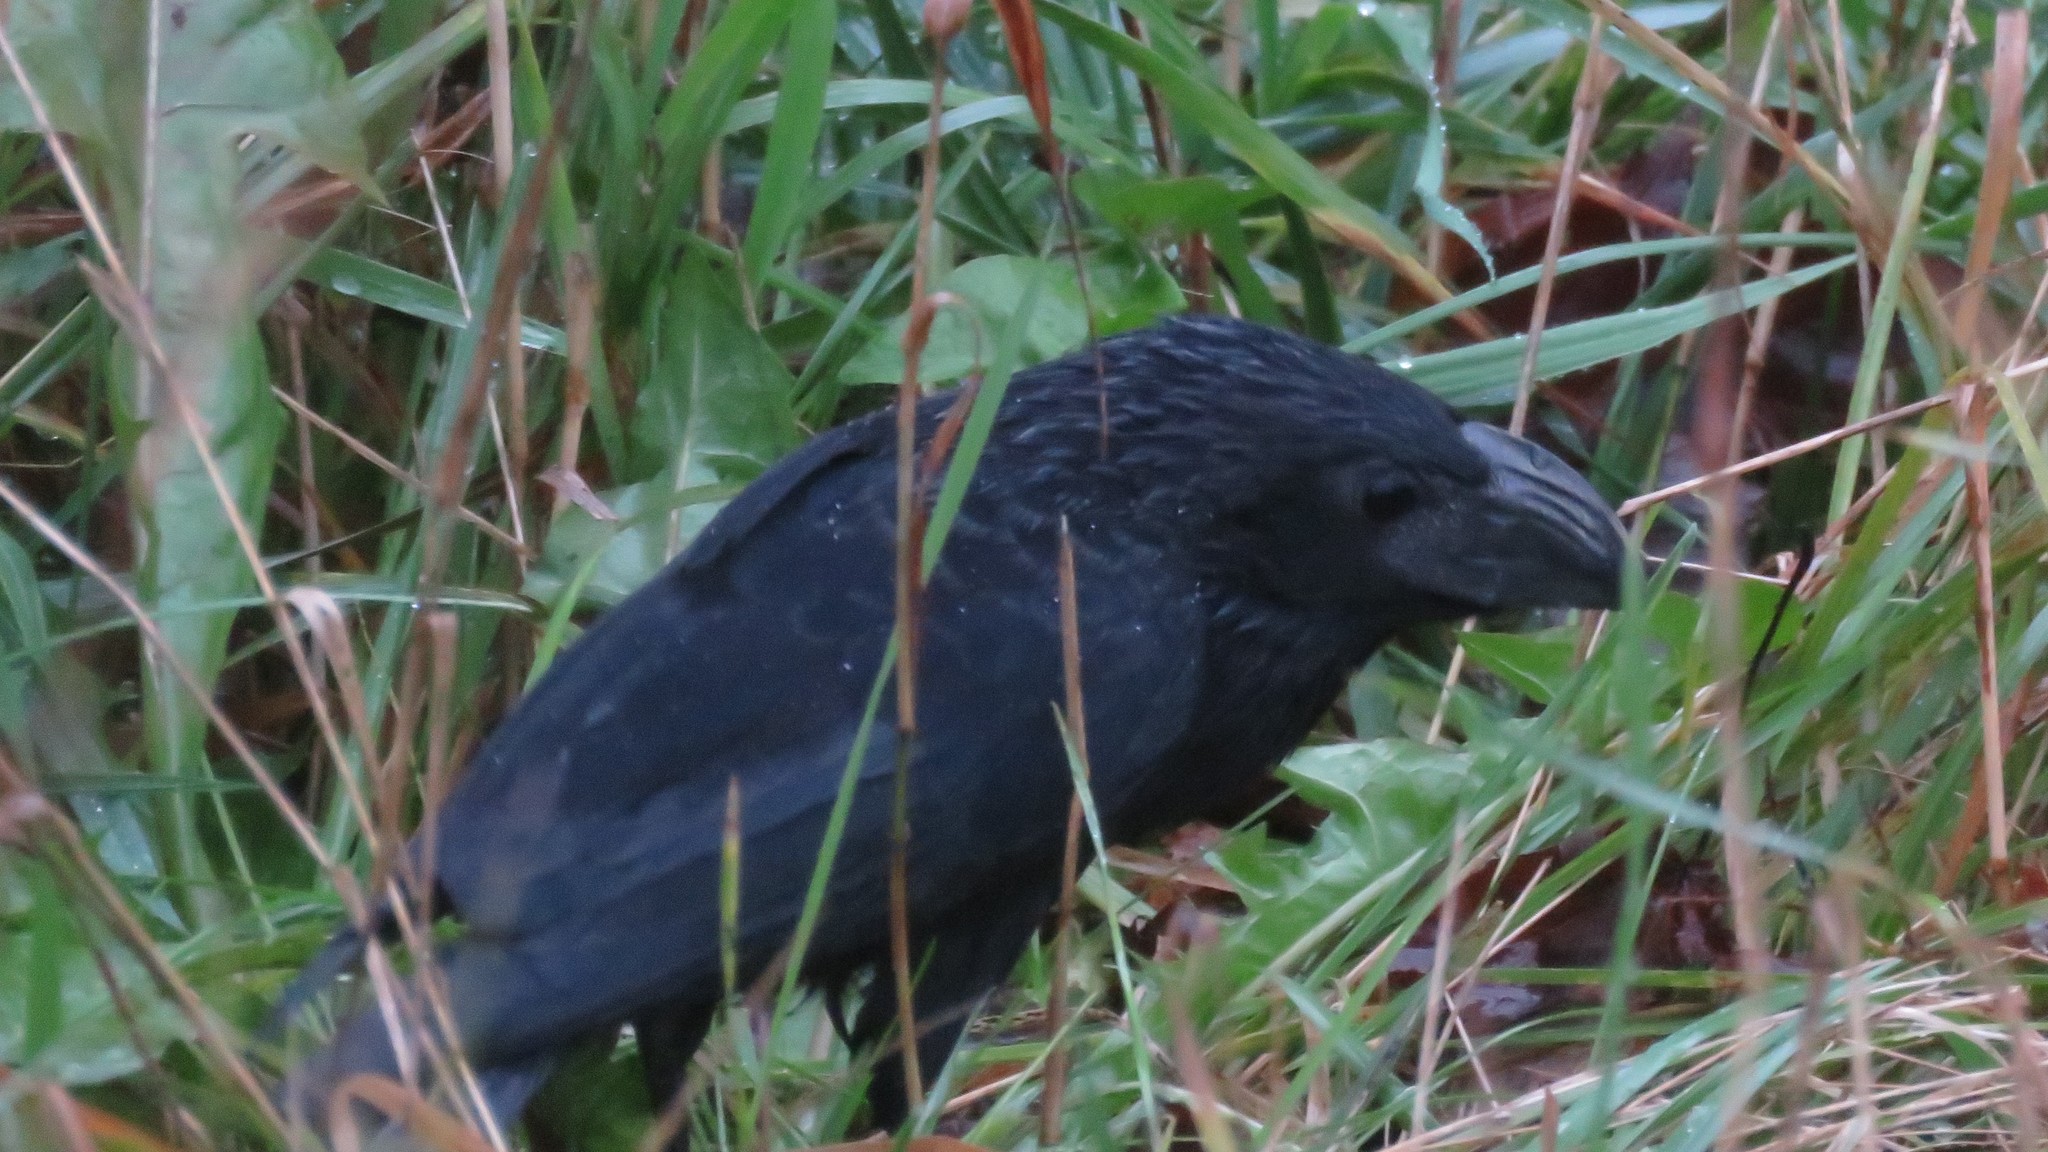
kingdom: Animalia
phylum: Chordata
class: Aves
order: Cuculiformes
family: Cuculidae
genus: Crotophaga
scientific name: Crotophaga sulcirostris
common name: Groove-billed ani
